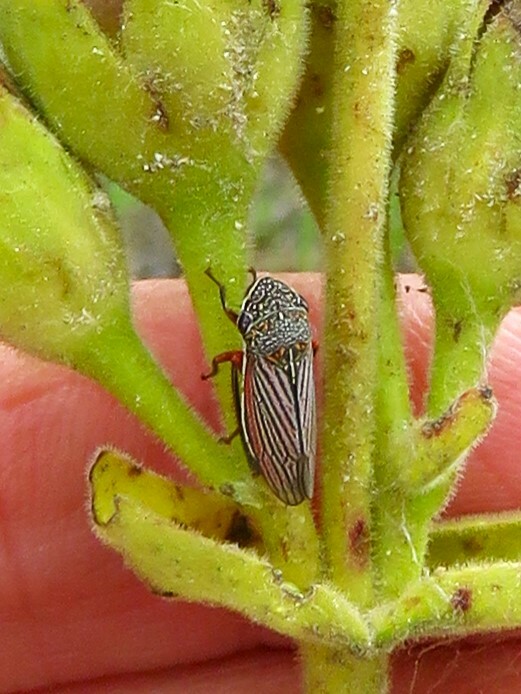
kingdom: Animalia
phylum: Arthropoda
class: Insecta
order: Hemiptera
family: Cicadellidae
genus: Cuerna
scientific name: Cuerna costalis
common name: Lateral-lined sharpshooter
